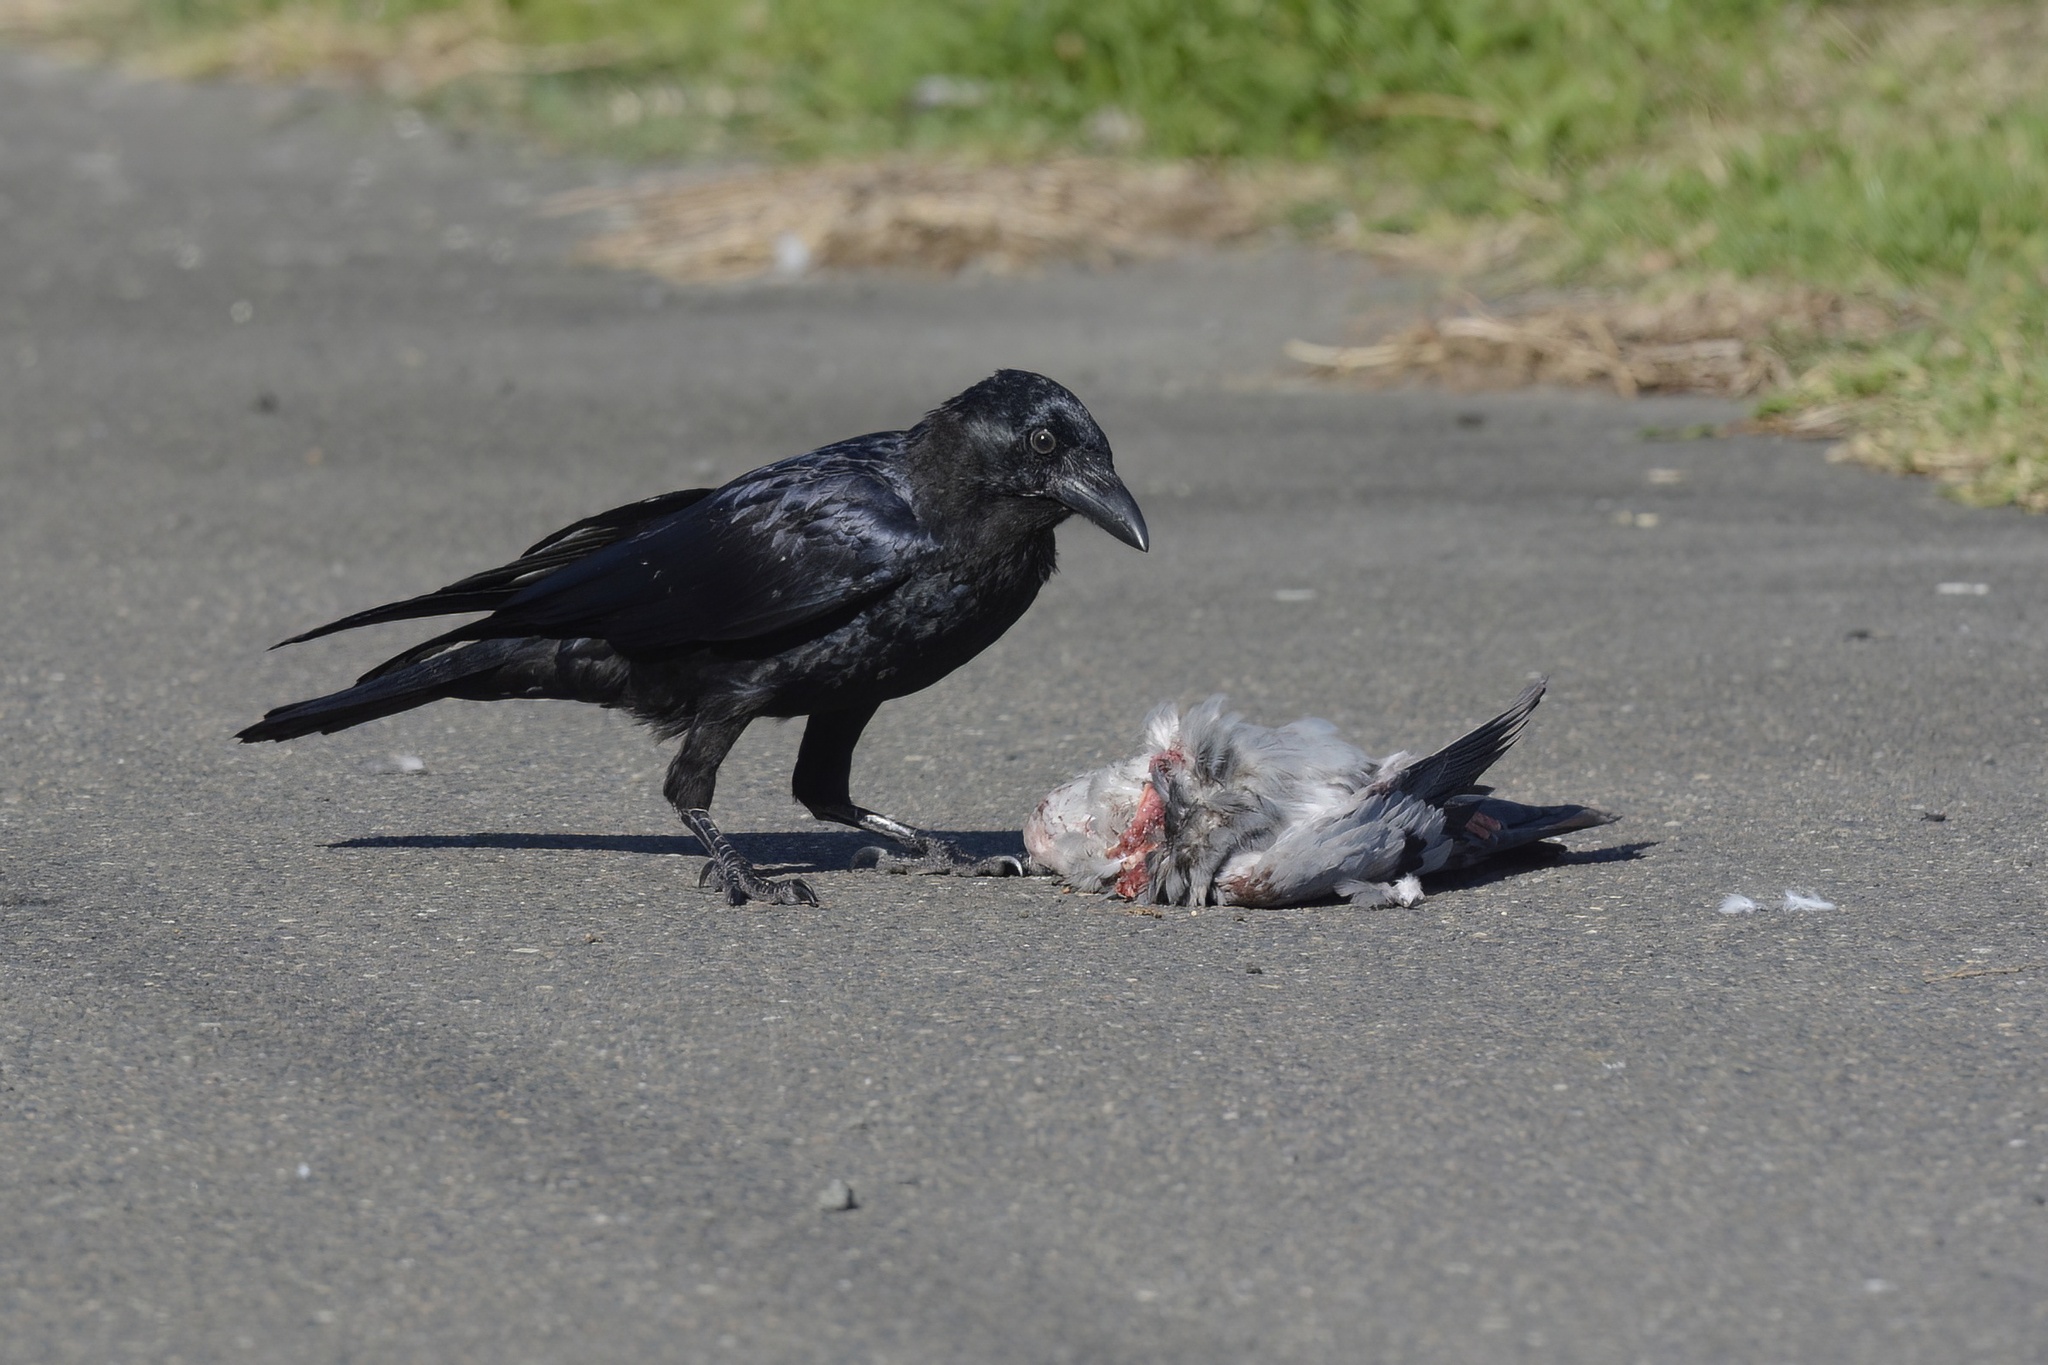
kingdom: Animalia
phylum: Chordata
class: Aves
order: Passeriformes
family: Corvidae
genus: Corvus
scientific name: Corvus coronoides
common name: Australian raven
